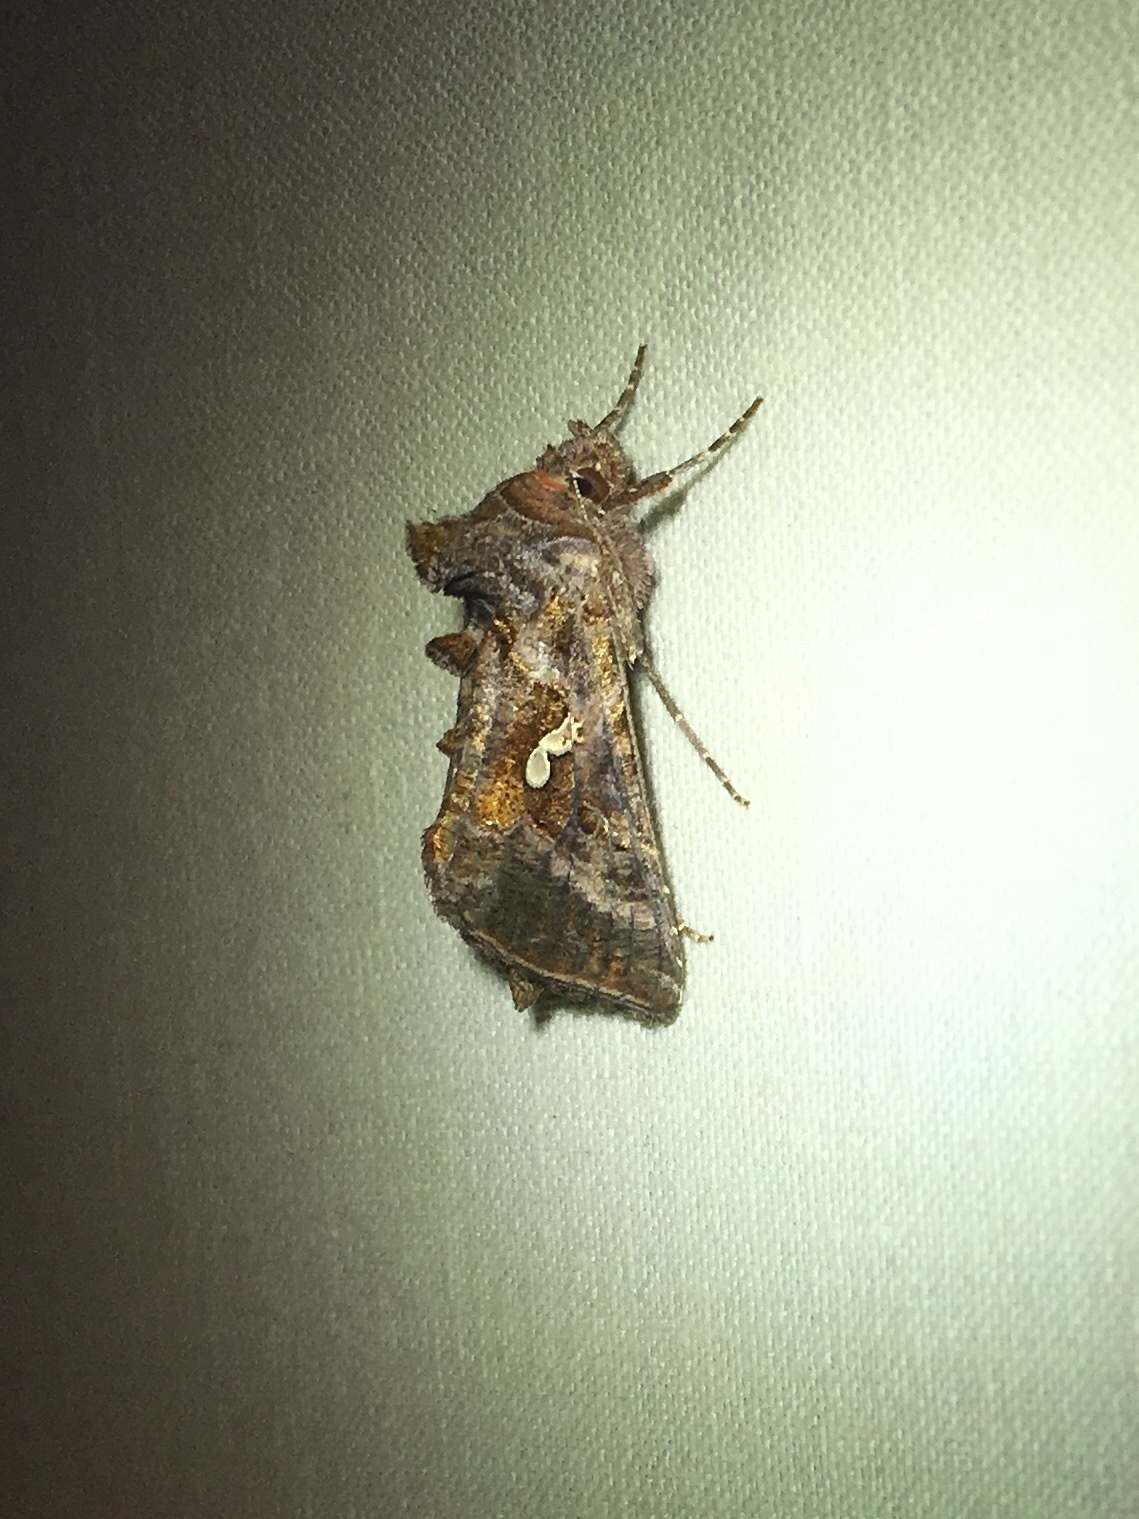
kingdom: Animalia
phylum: Arthropoda
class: Insecta
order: Lepidoptera
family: Noctuidae
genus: Autographa
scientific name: Autographa precationis
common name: Common looper moth
